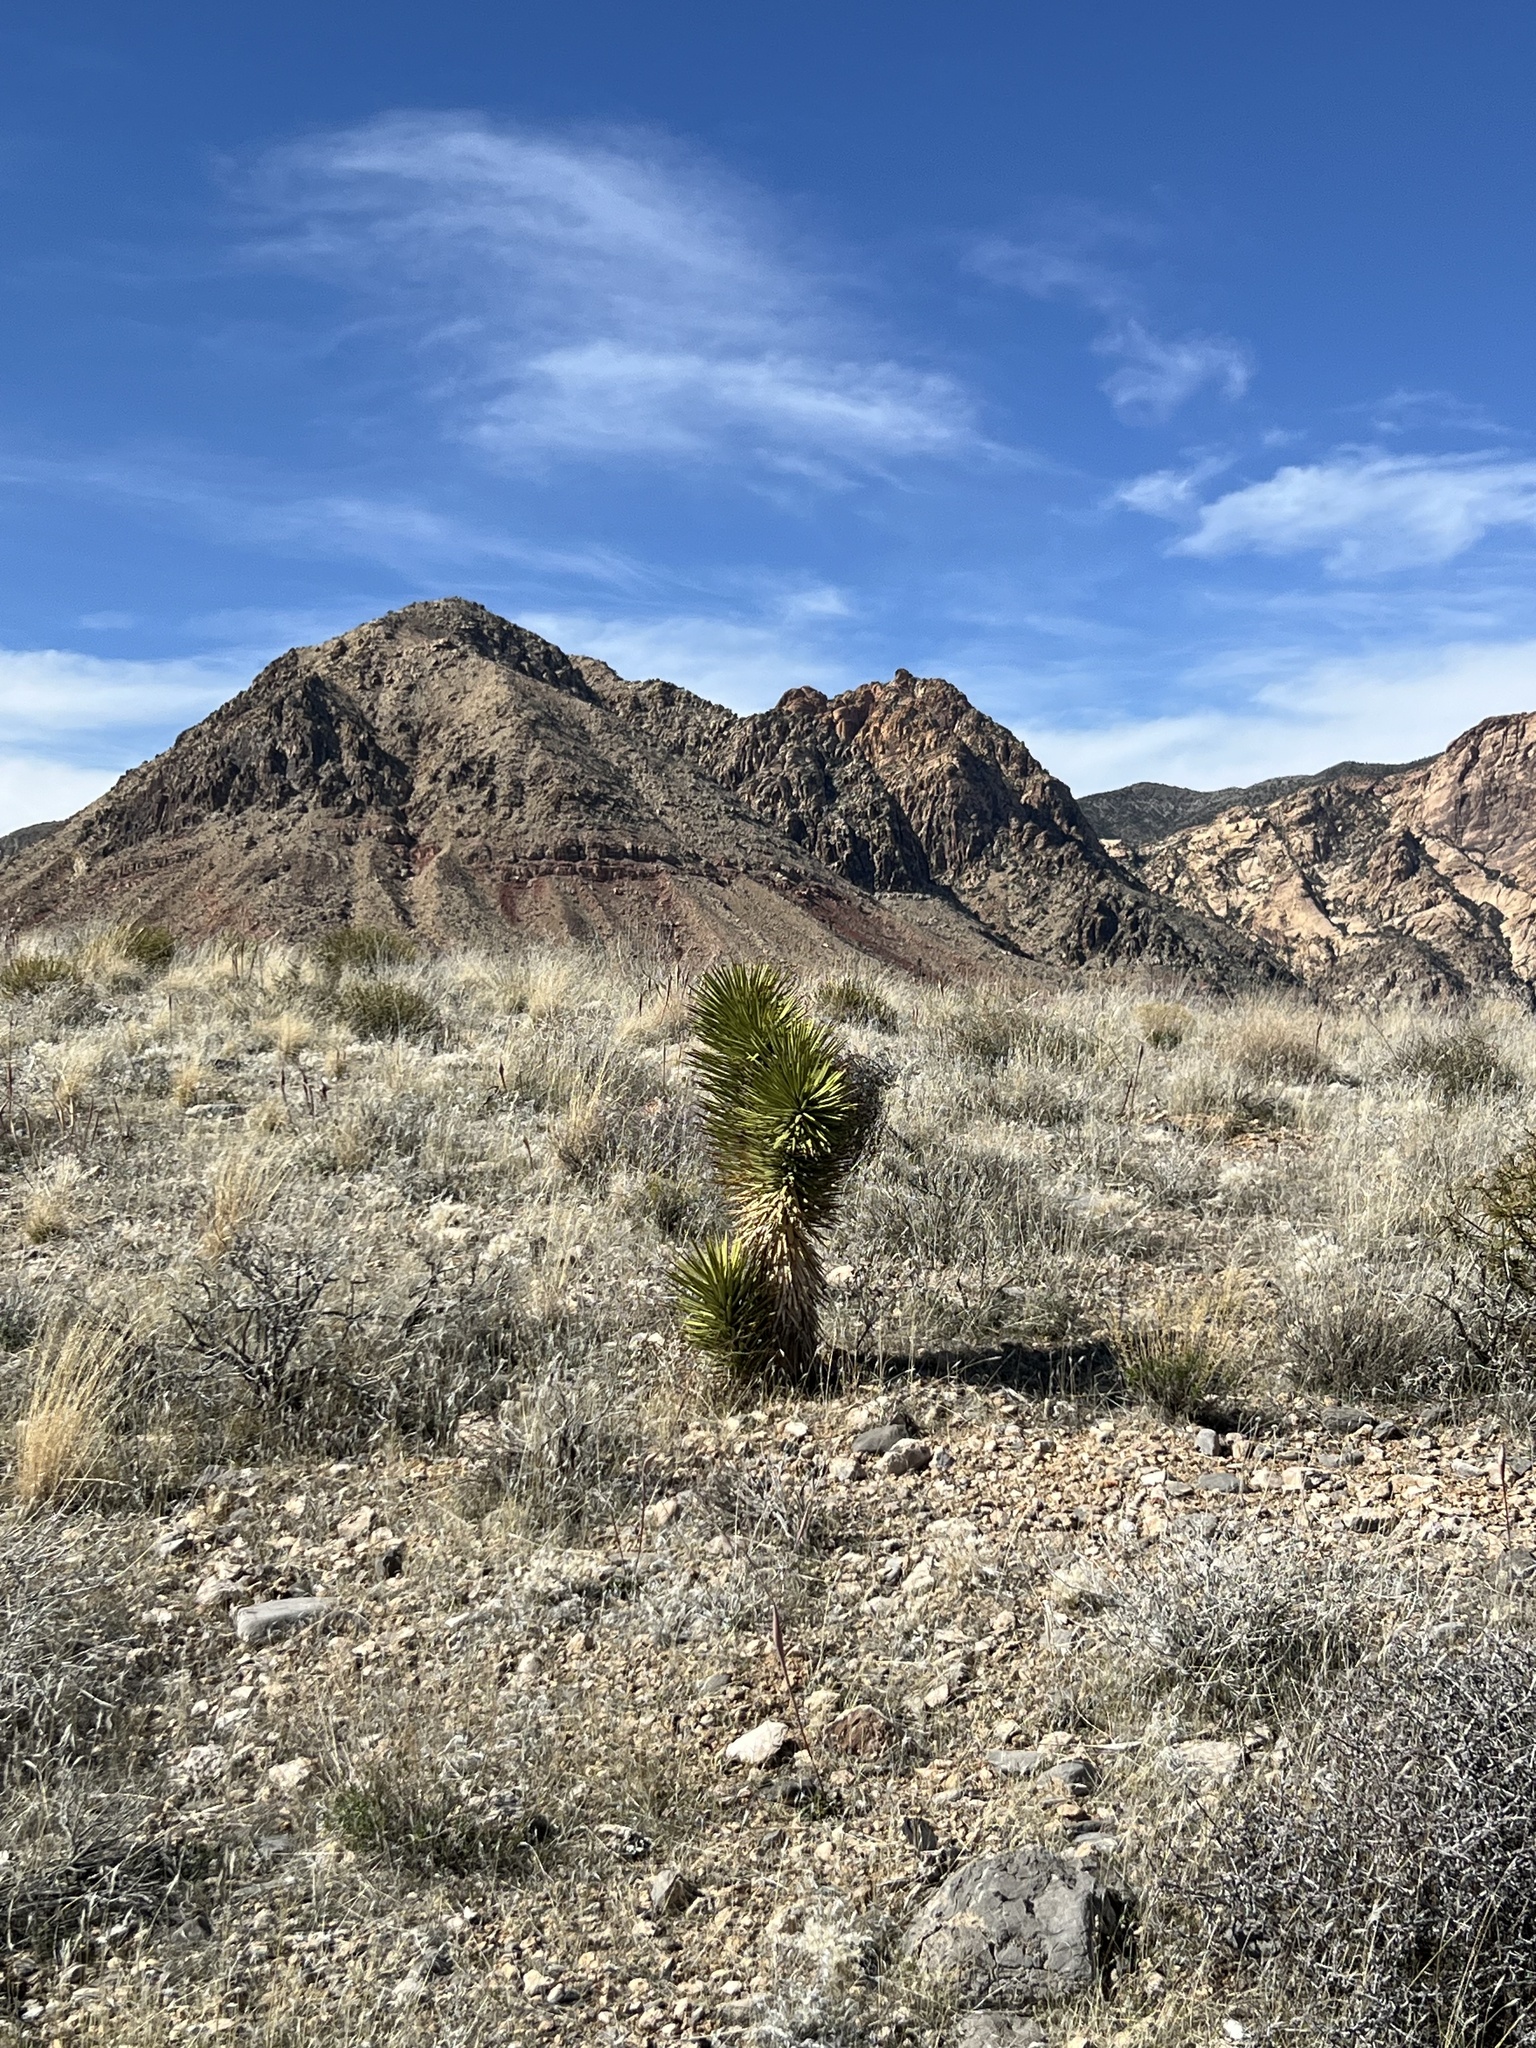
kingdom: Plantae
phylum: Tracheophyta
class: Liliopsida
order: Asparagales
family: Asparagaceae
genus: Yucca
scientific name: Yucca brevifolia
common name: Joshua tree
